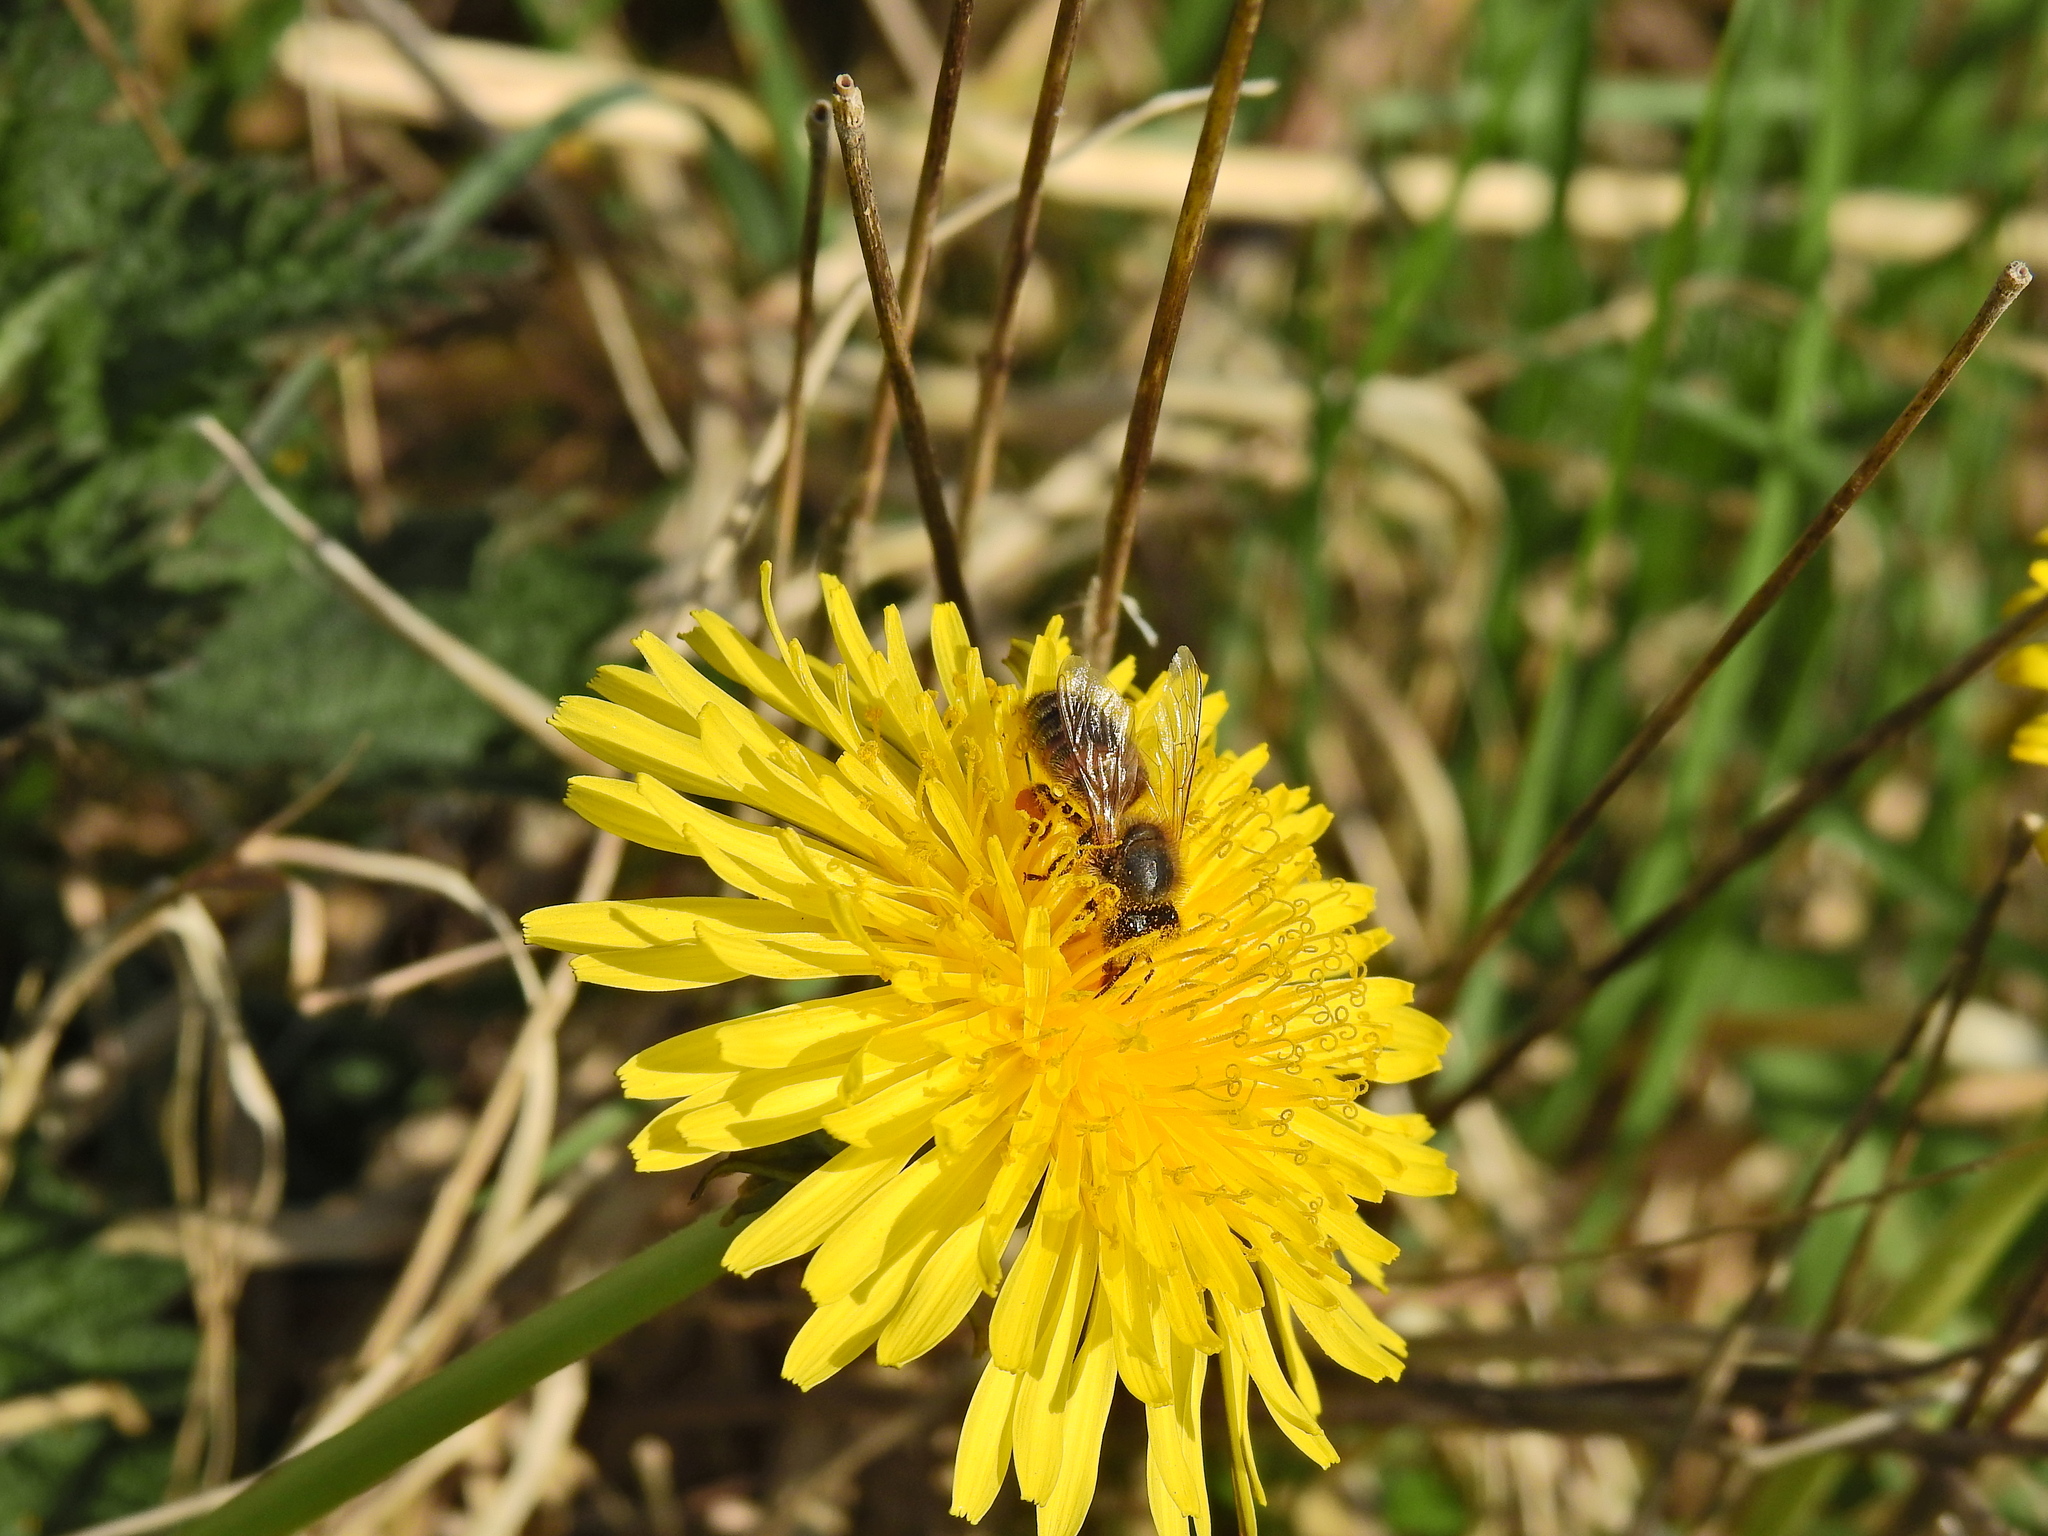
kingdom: Animalia
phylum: Arthropoda
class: Insecta
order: Hymenoptera
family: Apidae
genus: Apis
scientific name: Apis mellifera
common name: Honey bee
